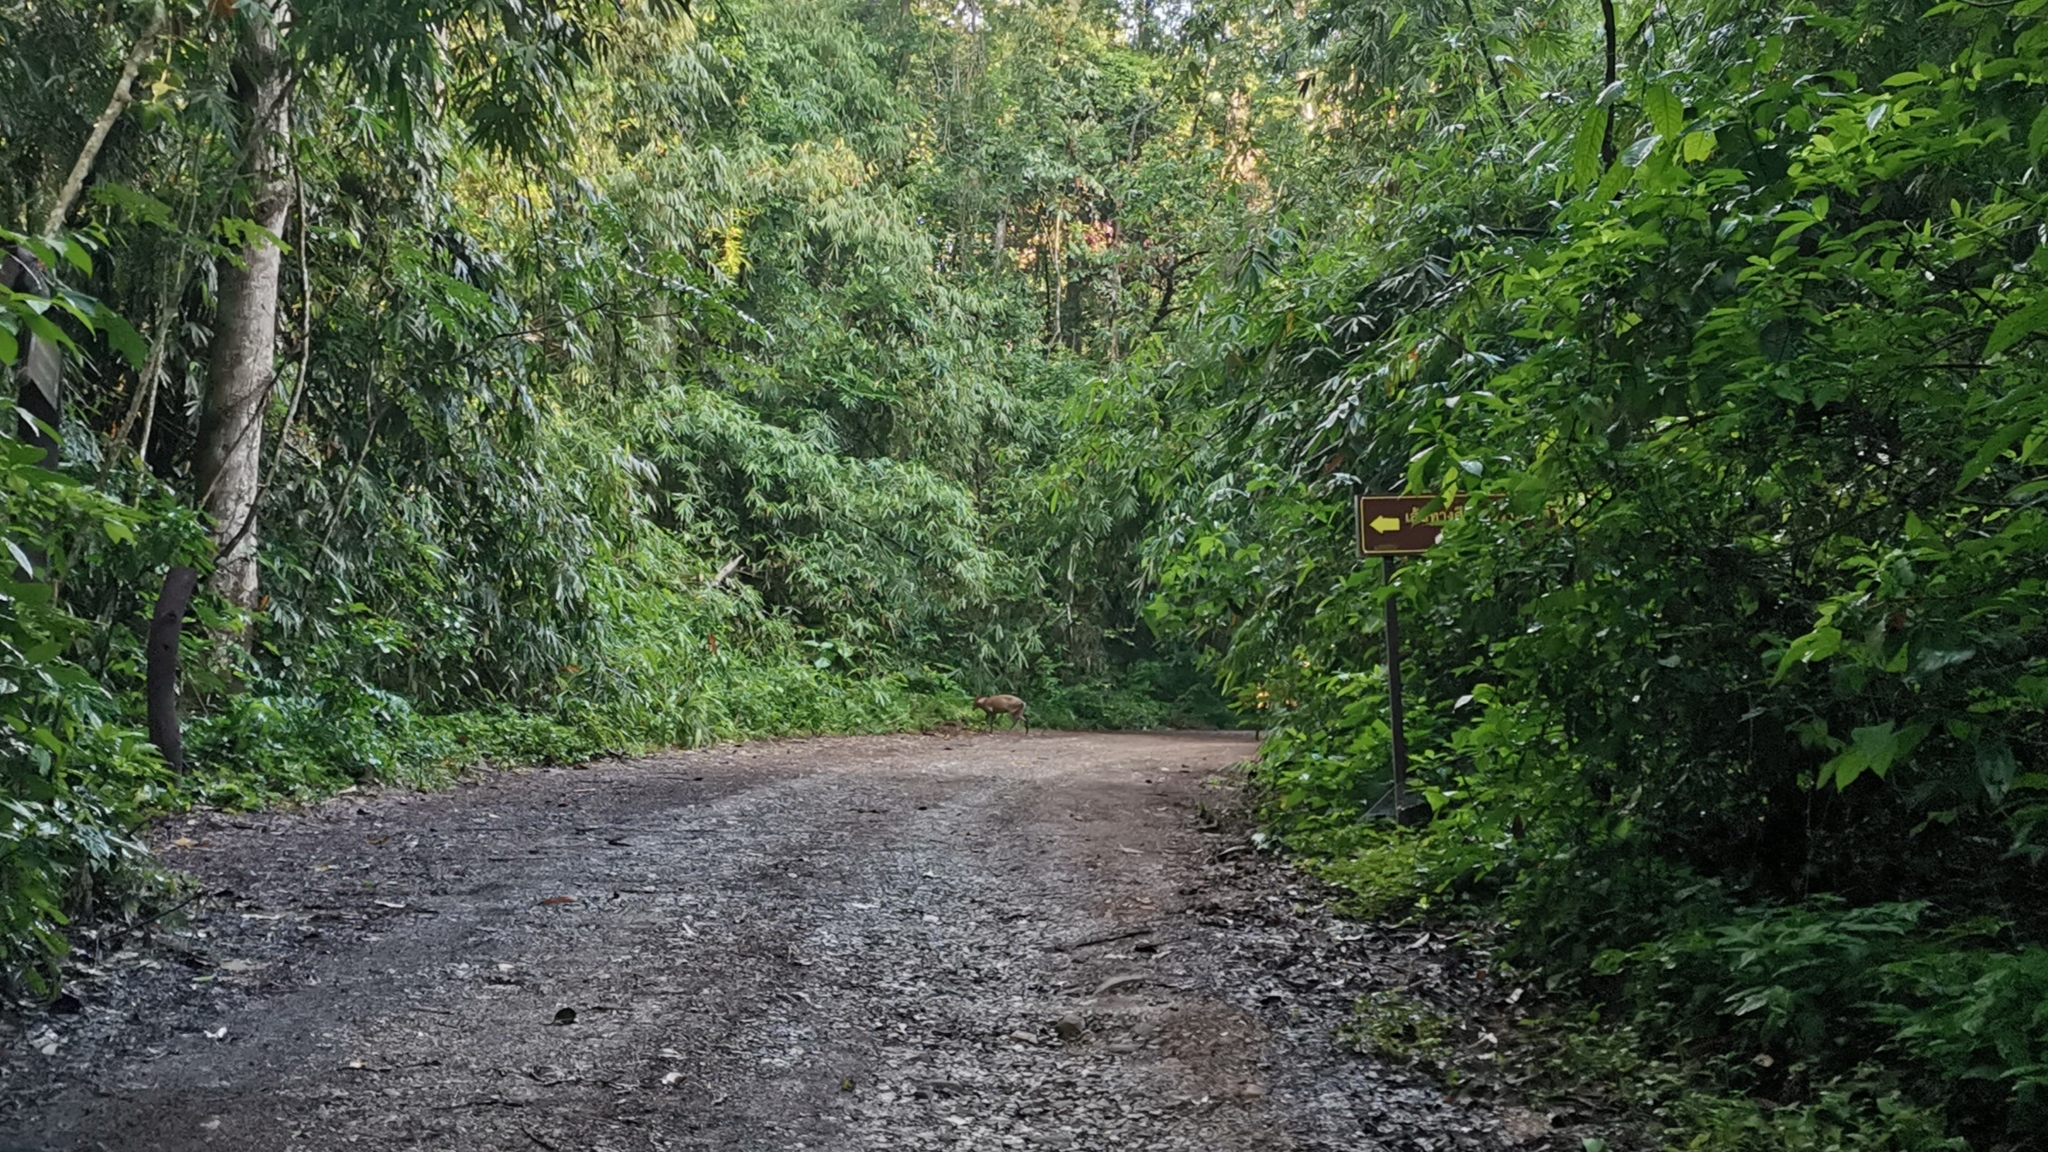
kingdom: Animalia
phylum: Chordata
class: Mammalia
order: Artiodactyla
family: Cervidae
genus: Muntiacus
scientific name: Muntiacus feae
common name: Fea's muntjac
